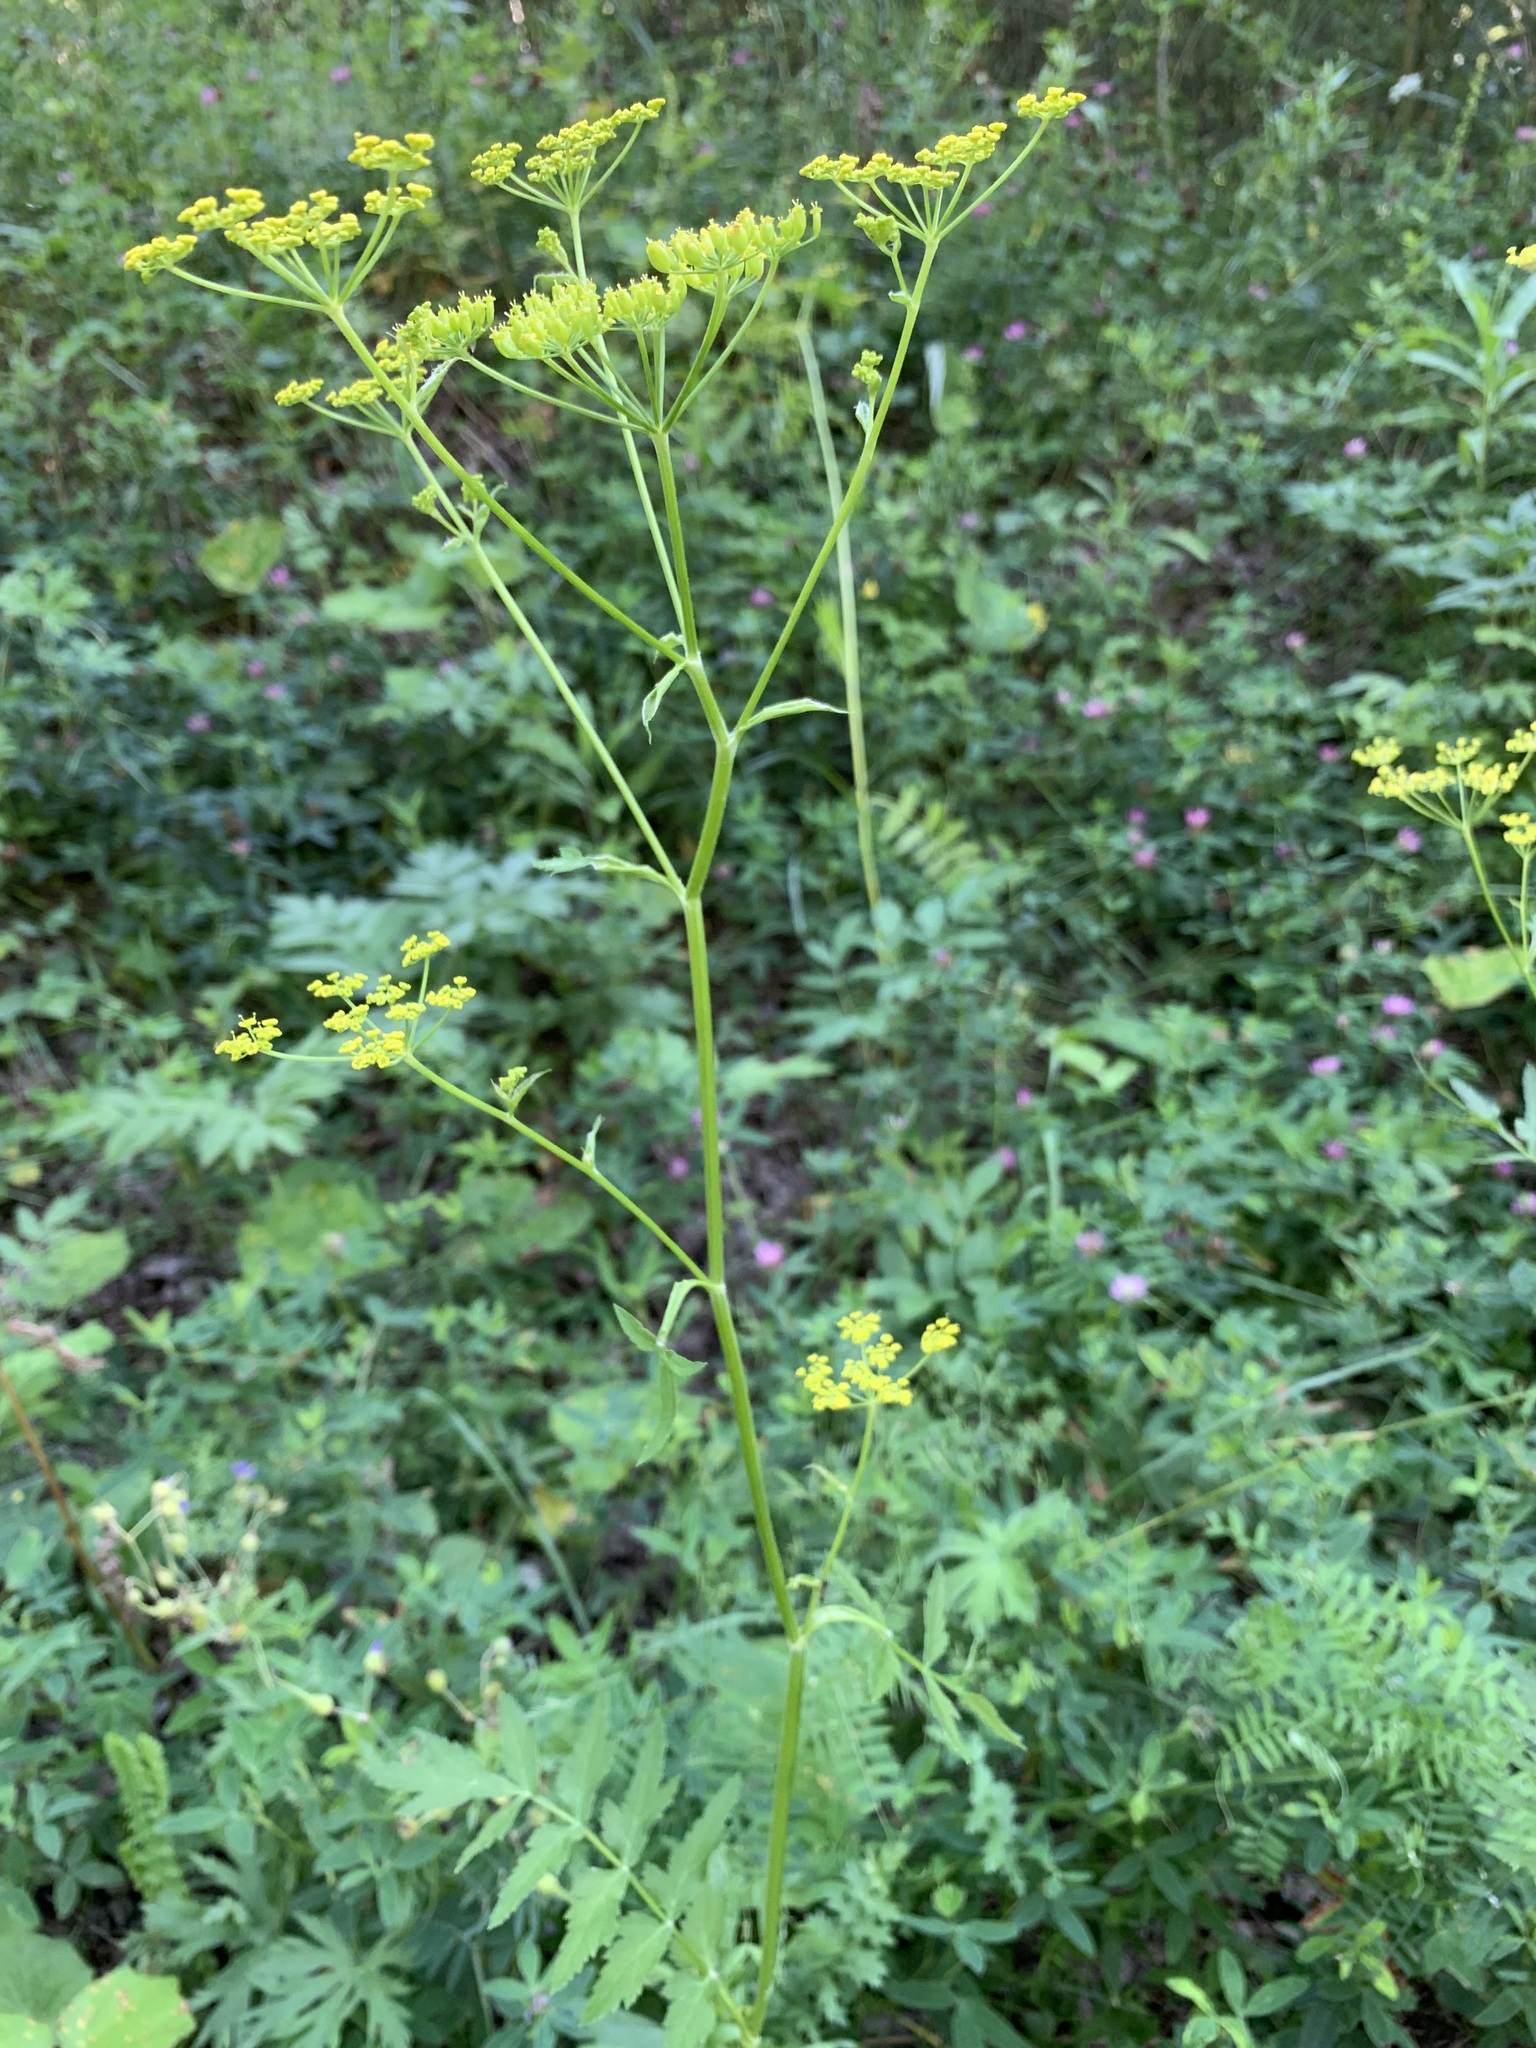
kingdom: Plantae
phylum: Tracheophyta
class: Magnoliopsida
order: Apiales
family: Apiaceae
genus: Pastinaca
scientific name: Pastinaca sativa
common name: Wild parsnip
